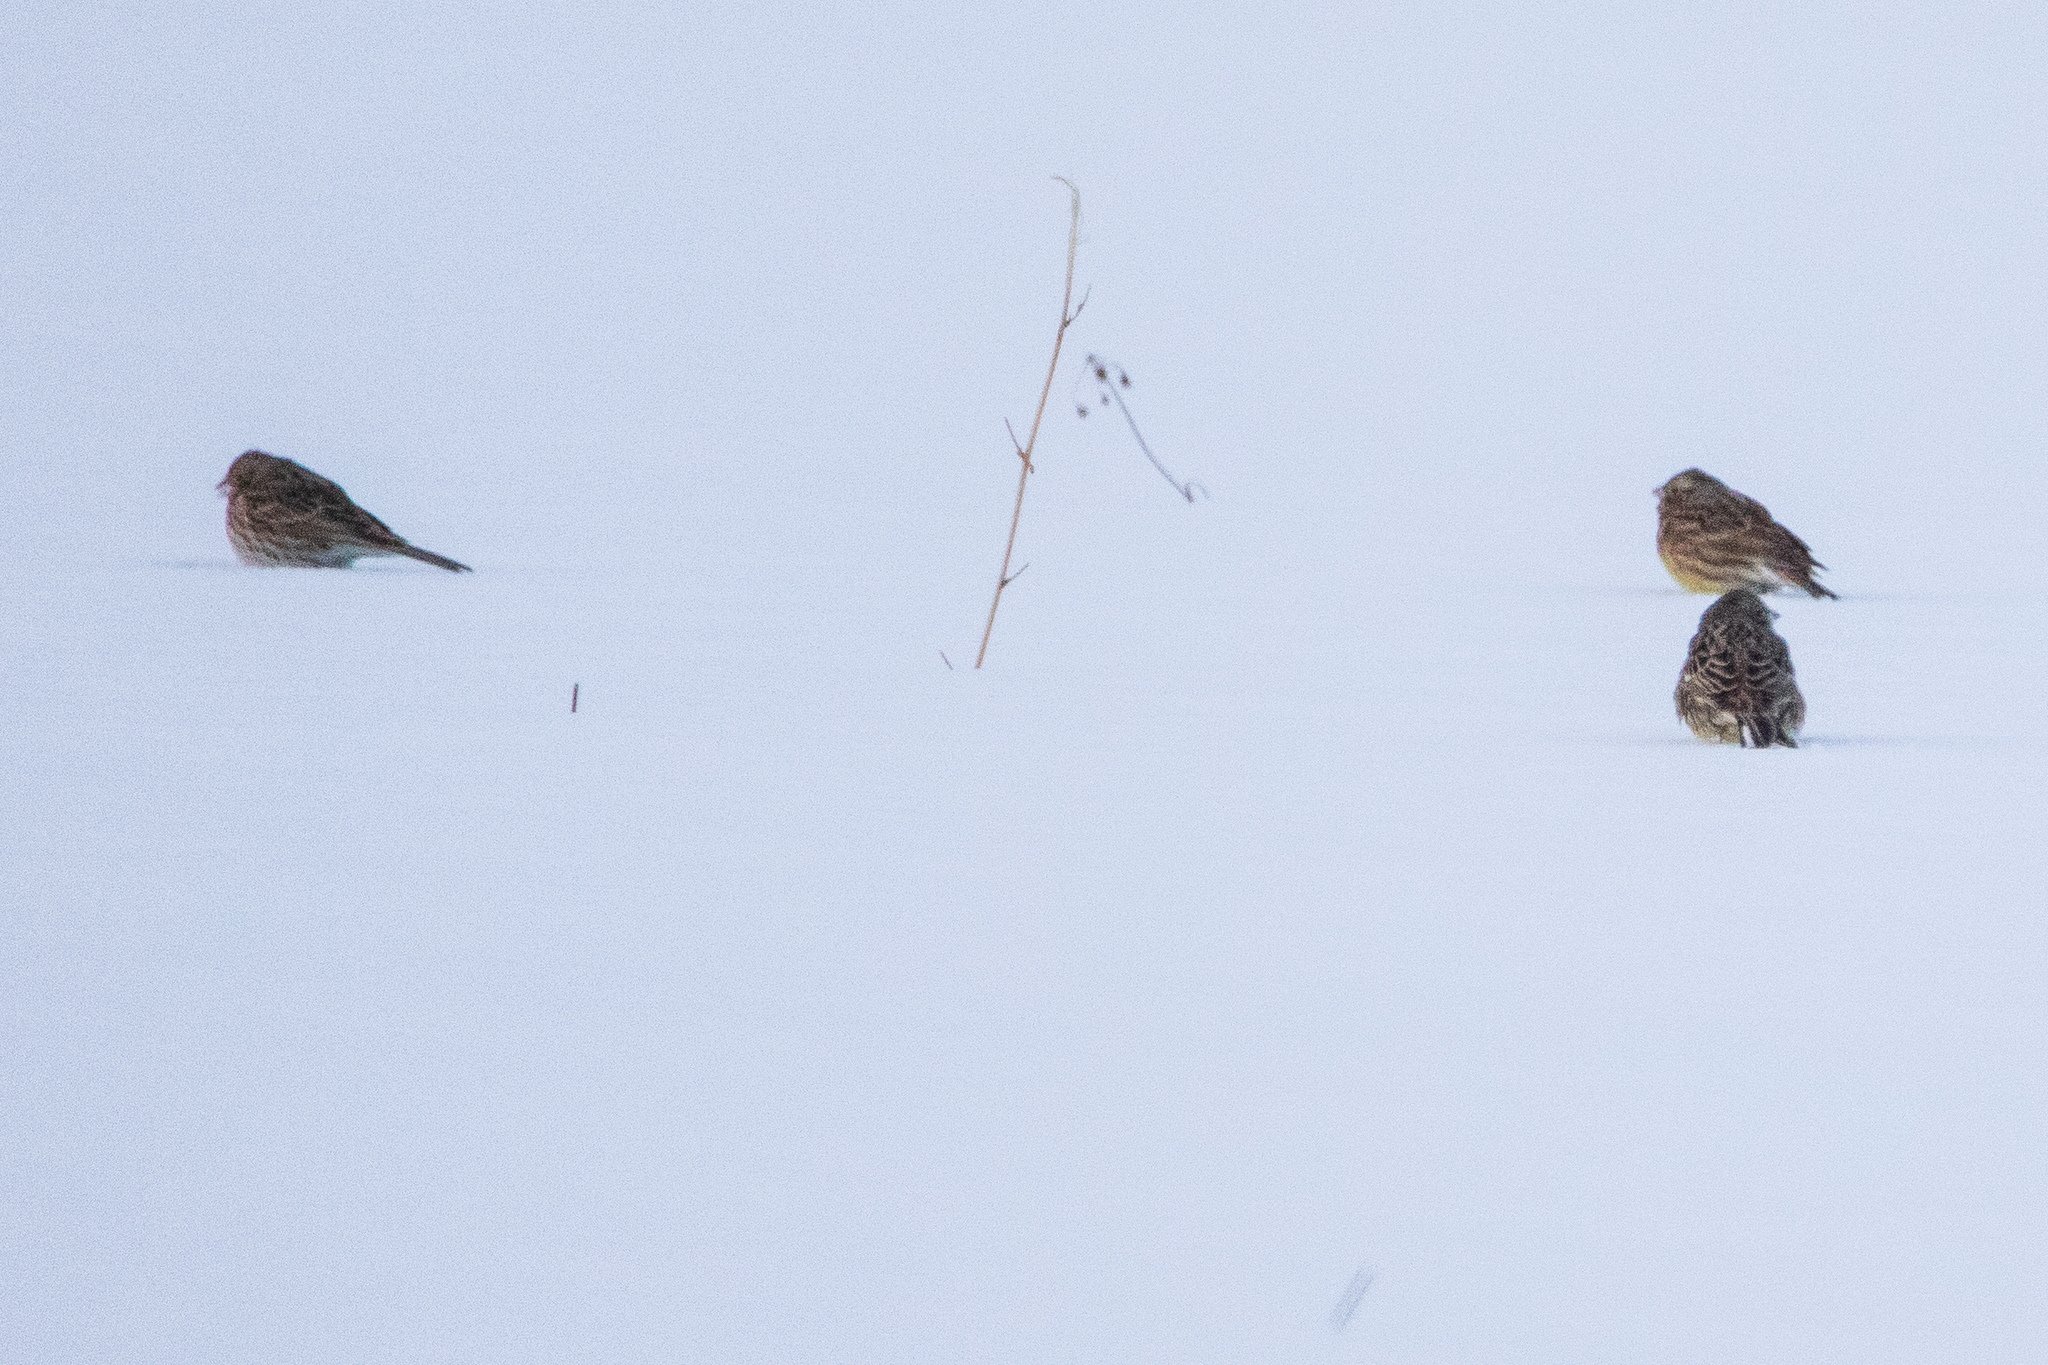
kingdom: Animalia
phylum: Chordata
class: Aves
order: Passeriformes
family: Emberizidae
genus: Emberiza
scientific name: Emberiza
